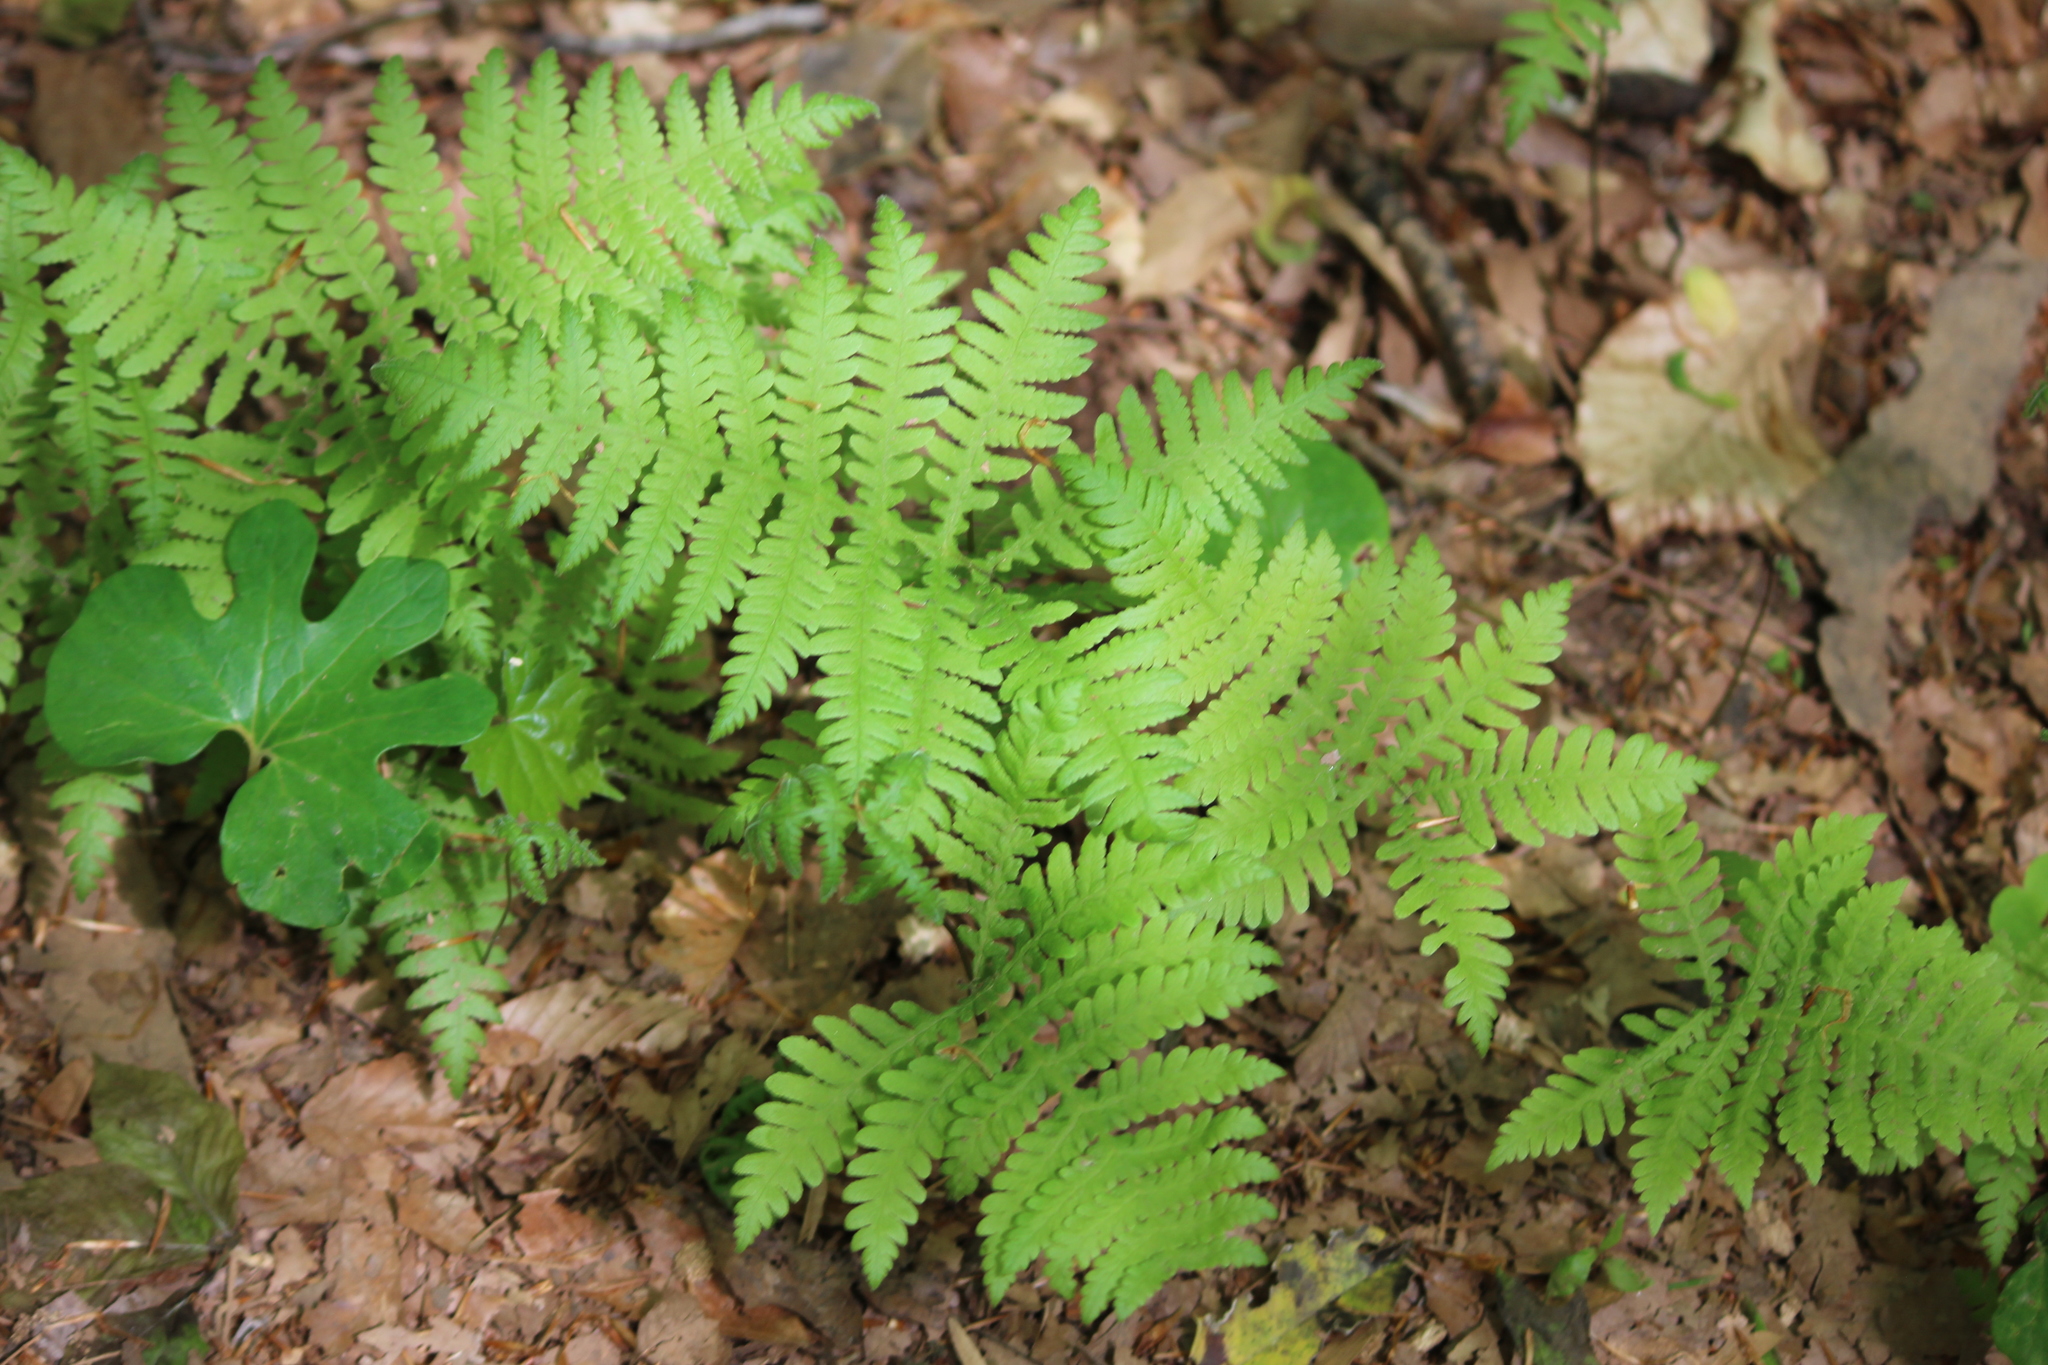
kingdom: Plantae
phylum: Tracheophyta
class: Polypodiopsida
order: Polypodiales
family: Thelypteridaceae
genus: Phegopteris
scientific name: Phegopteris hexagonoptera
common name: Broad beech fern
